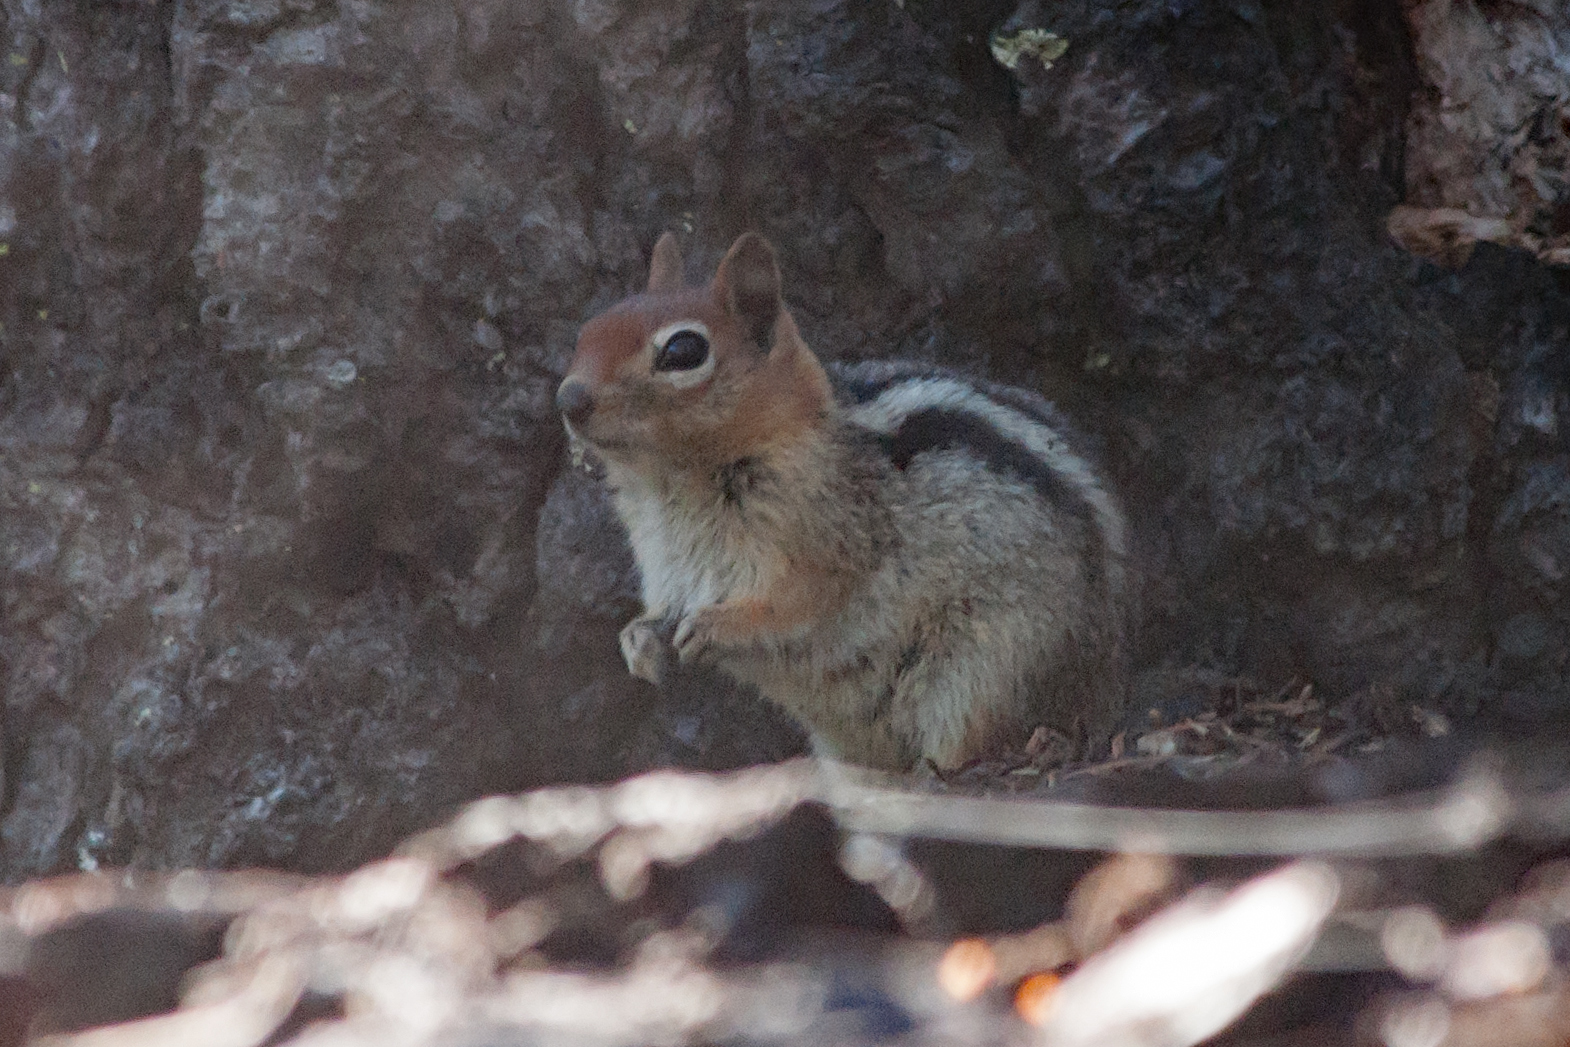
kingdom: Animalia
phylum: Chordata
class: Mammalia
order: Rodentia
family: Sciuridae
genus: Callospermophilus
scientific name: Callospermophilus lateralis
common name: Golden-mantled ground squirrel
